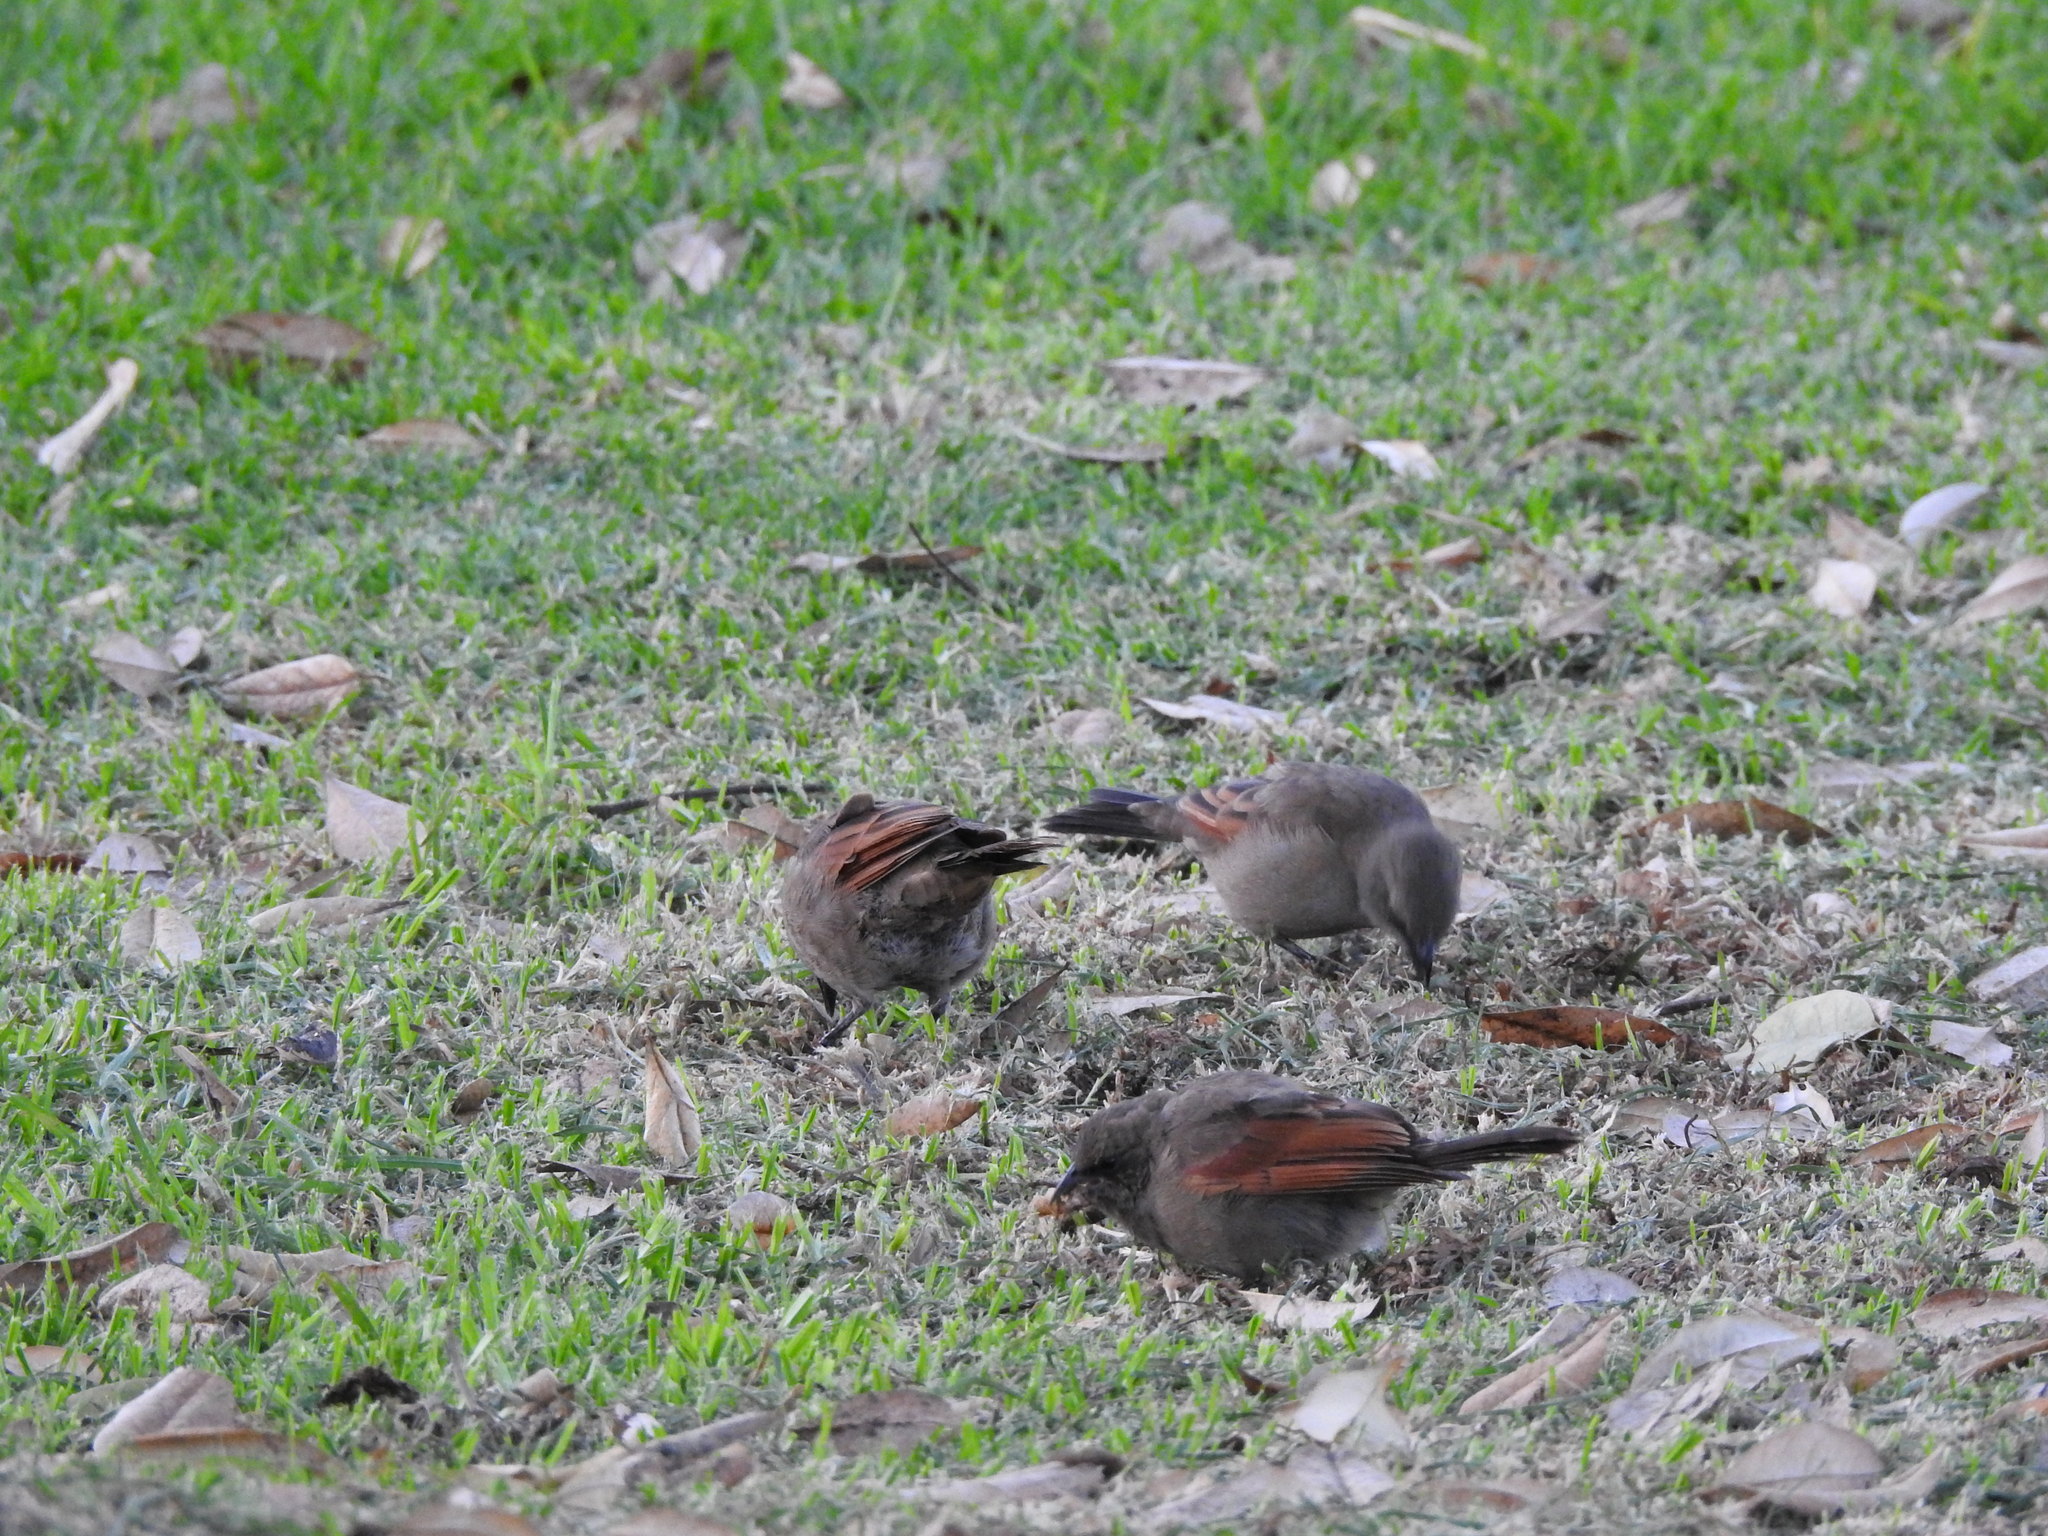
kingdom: Animalia
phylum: Chordata
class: Aves
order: Passeriformes
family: Icteridae
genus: Agelaioides
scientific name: Agelaioides badius
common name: Baywing
